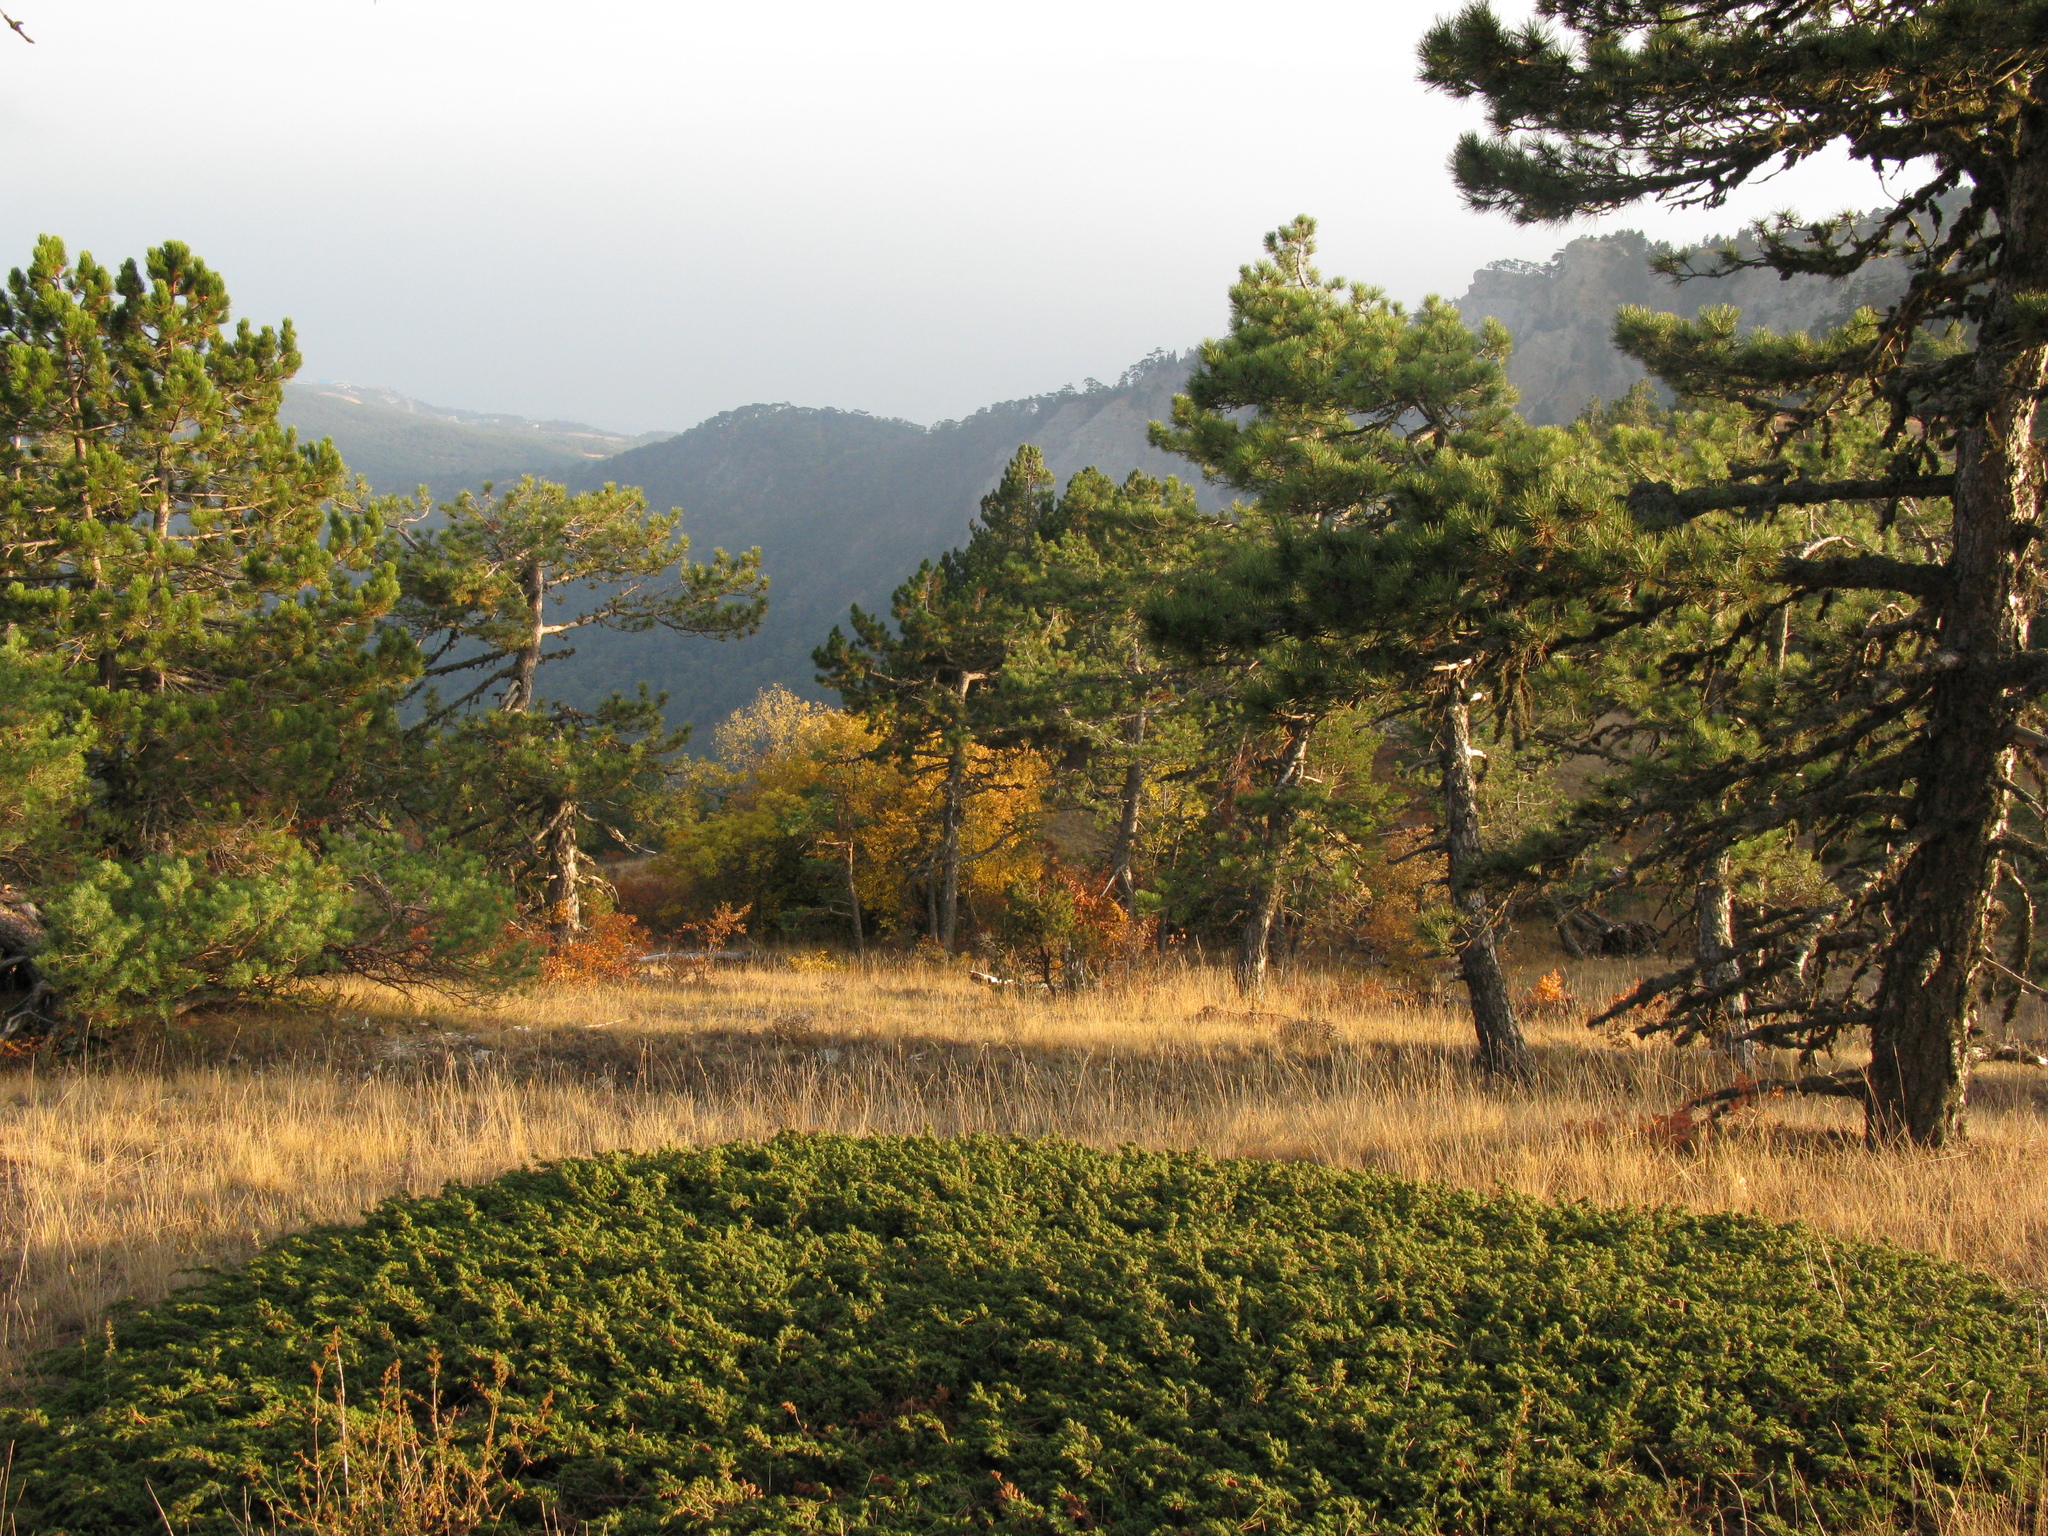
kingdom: Plantae
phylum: Tracheophyta
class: Pinopsida
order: Pinales
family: Pinaceae
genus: Pinus
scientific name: Pinus nigra
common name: Austrian pine
